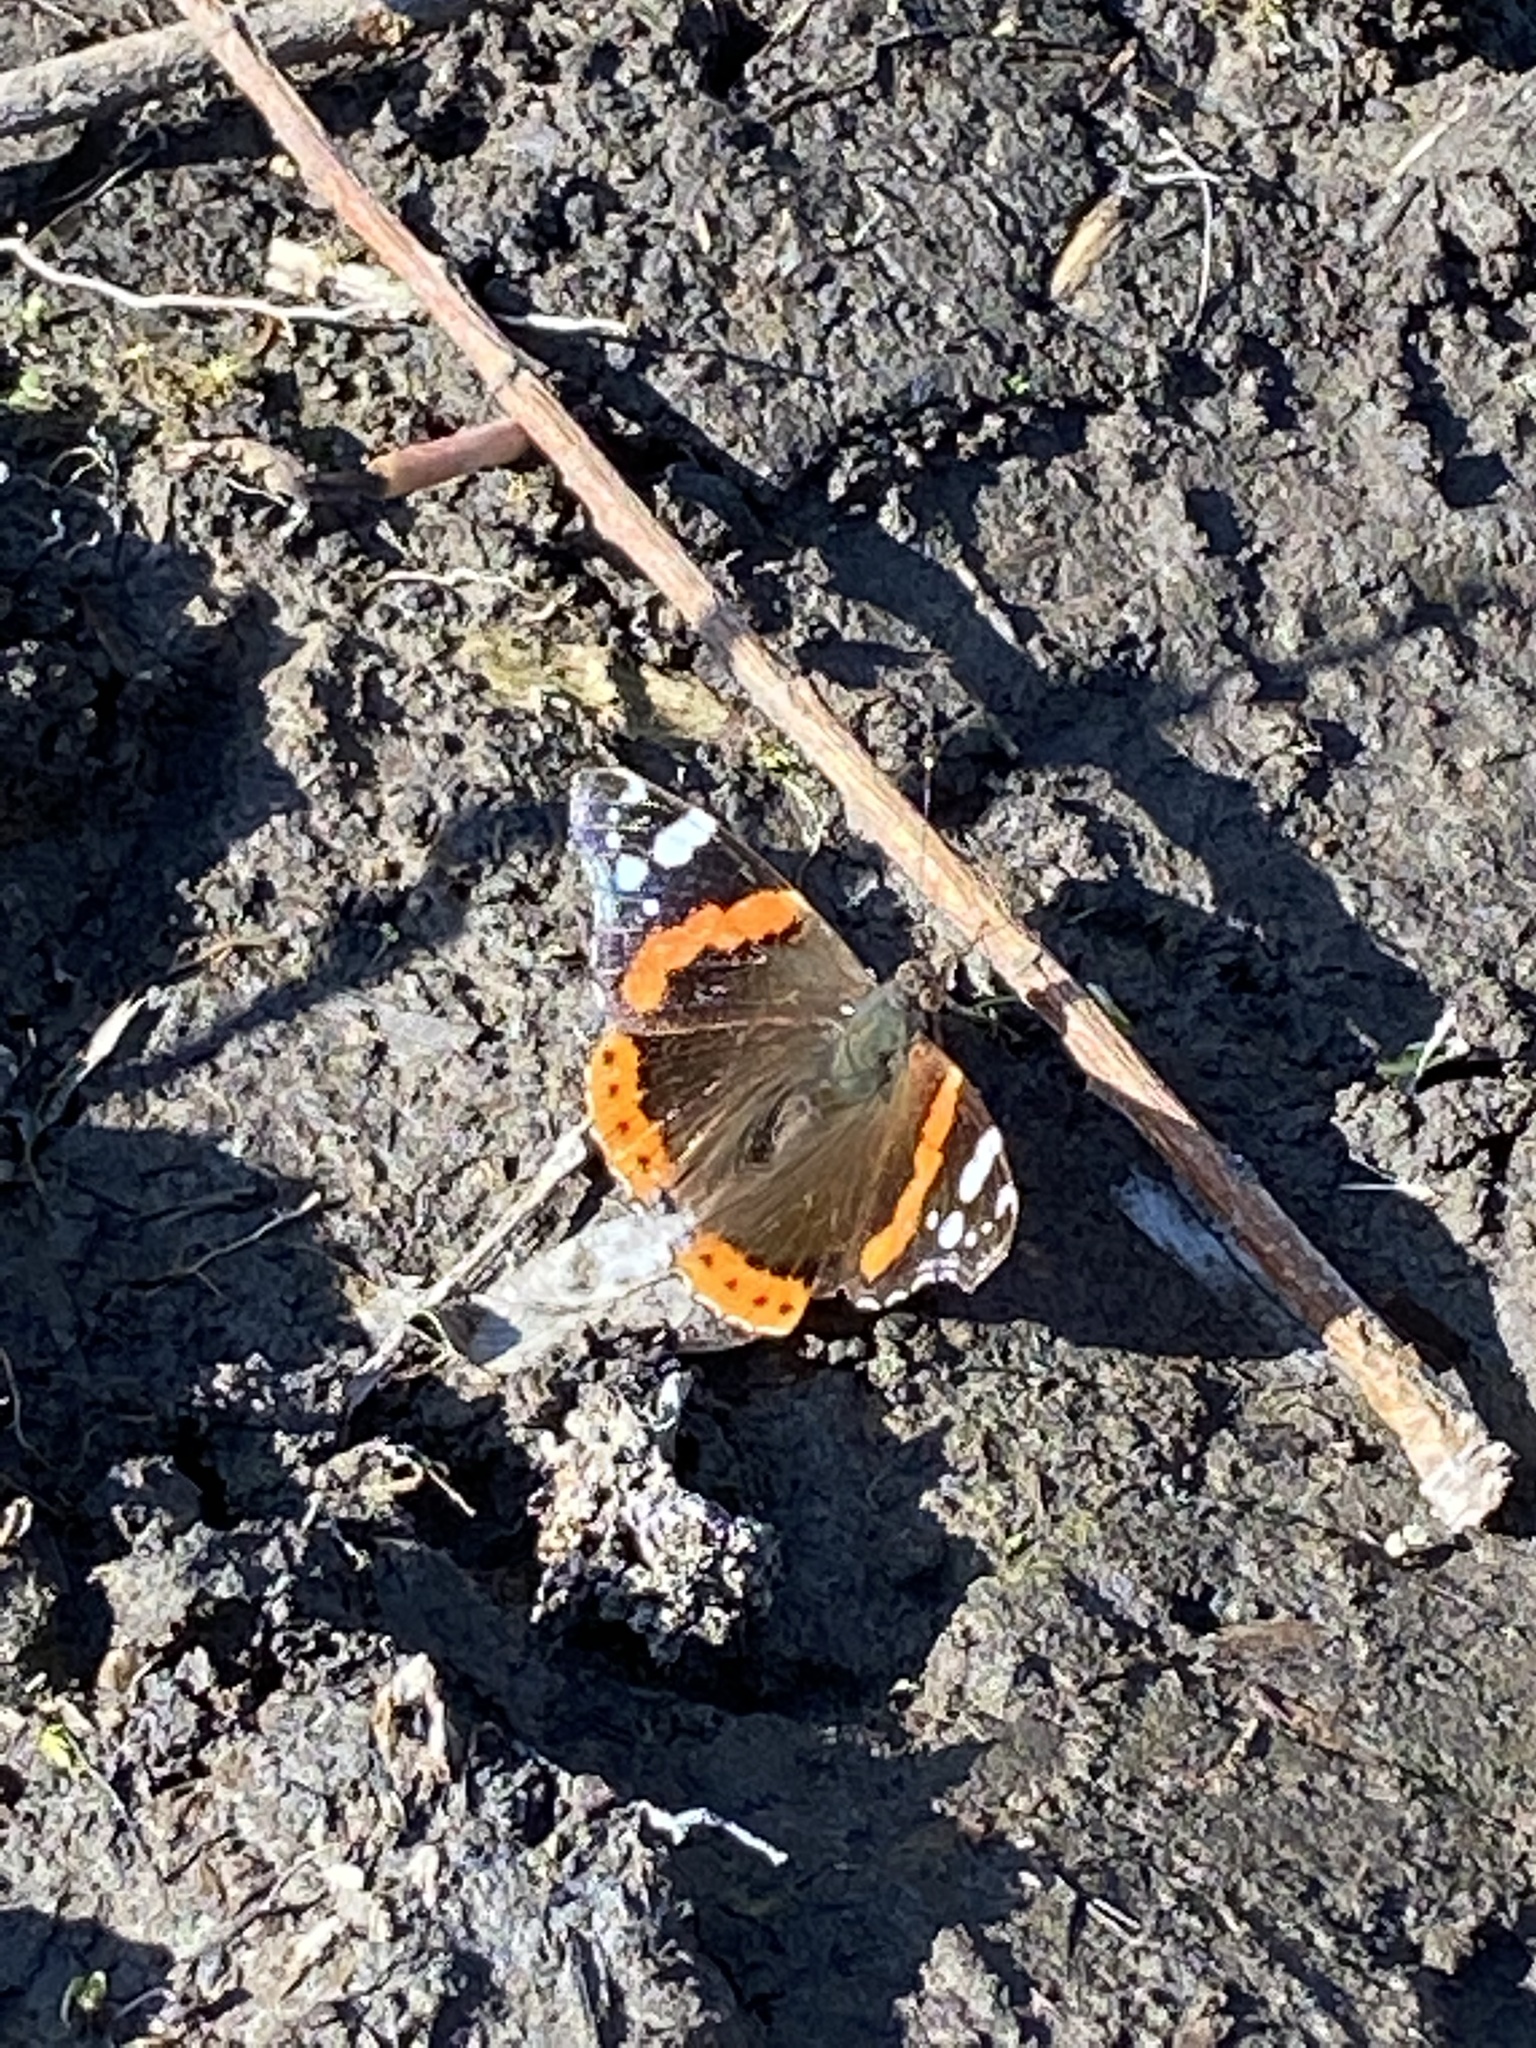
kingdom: Animalia
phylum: Arthropoda
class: Insecta
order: Lepidoptera
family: Nymphalidae
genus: Vanessa
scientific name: Vanessa atalanta
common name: Red admiral
